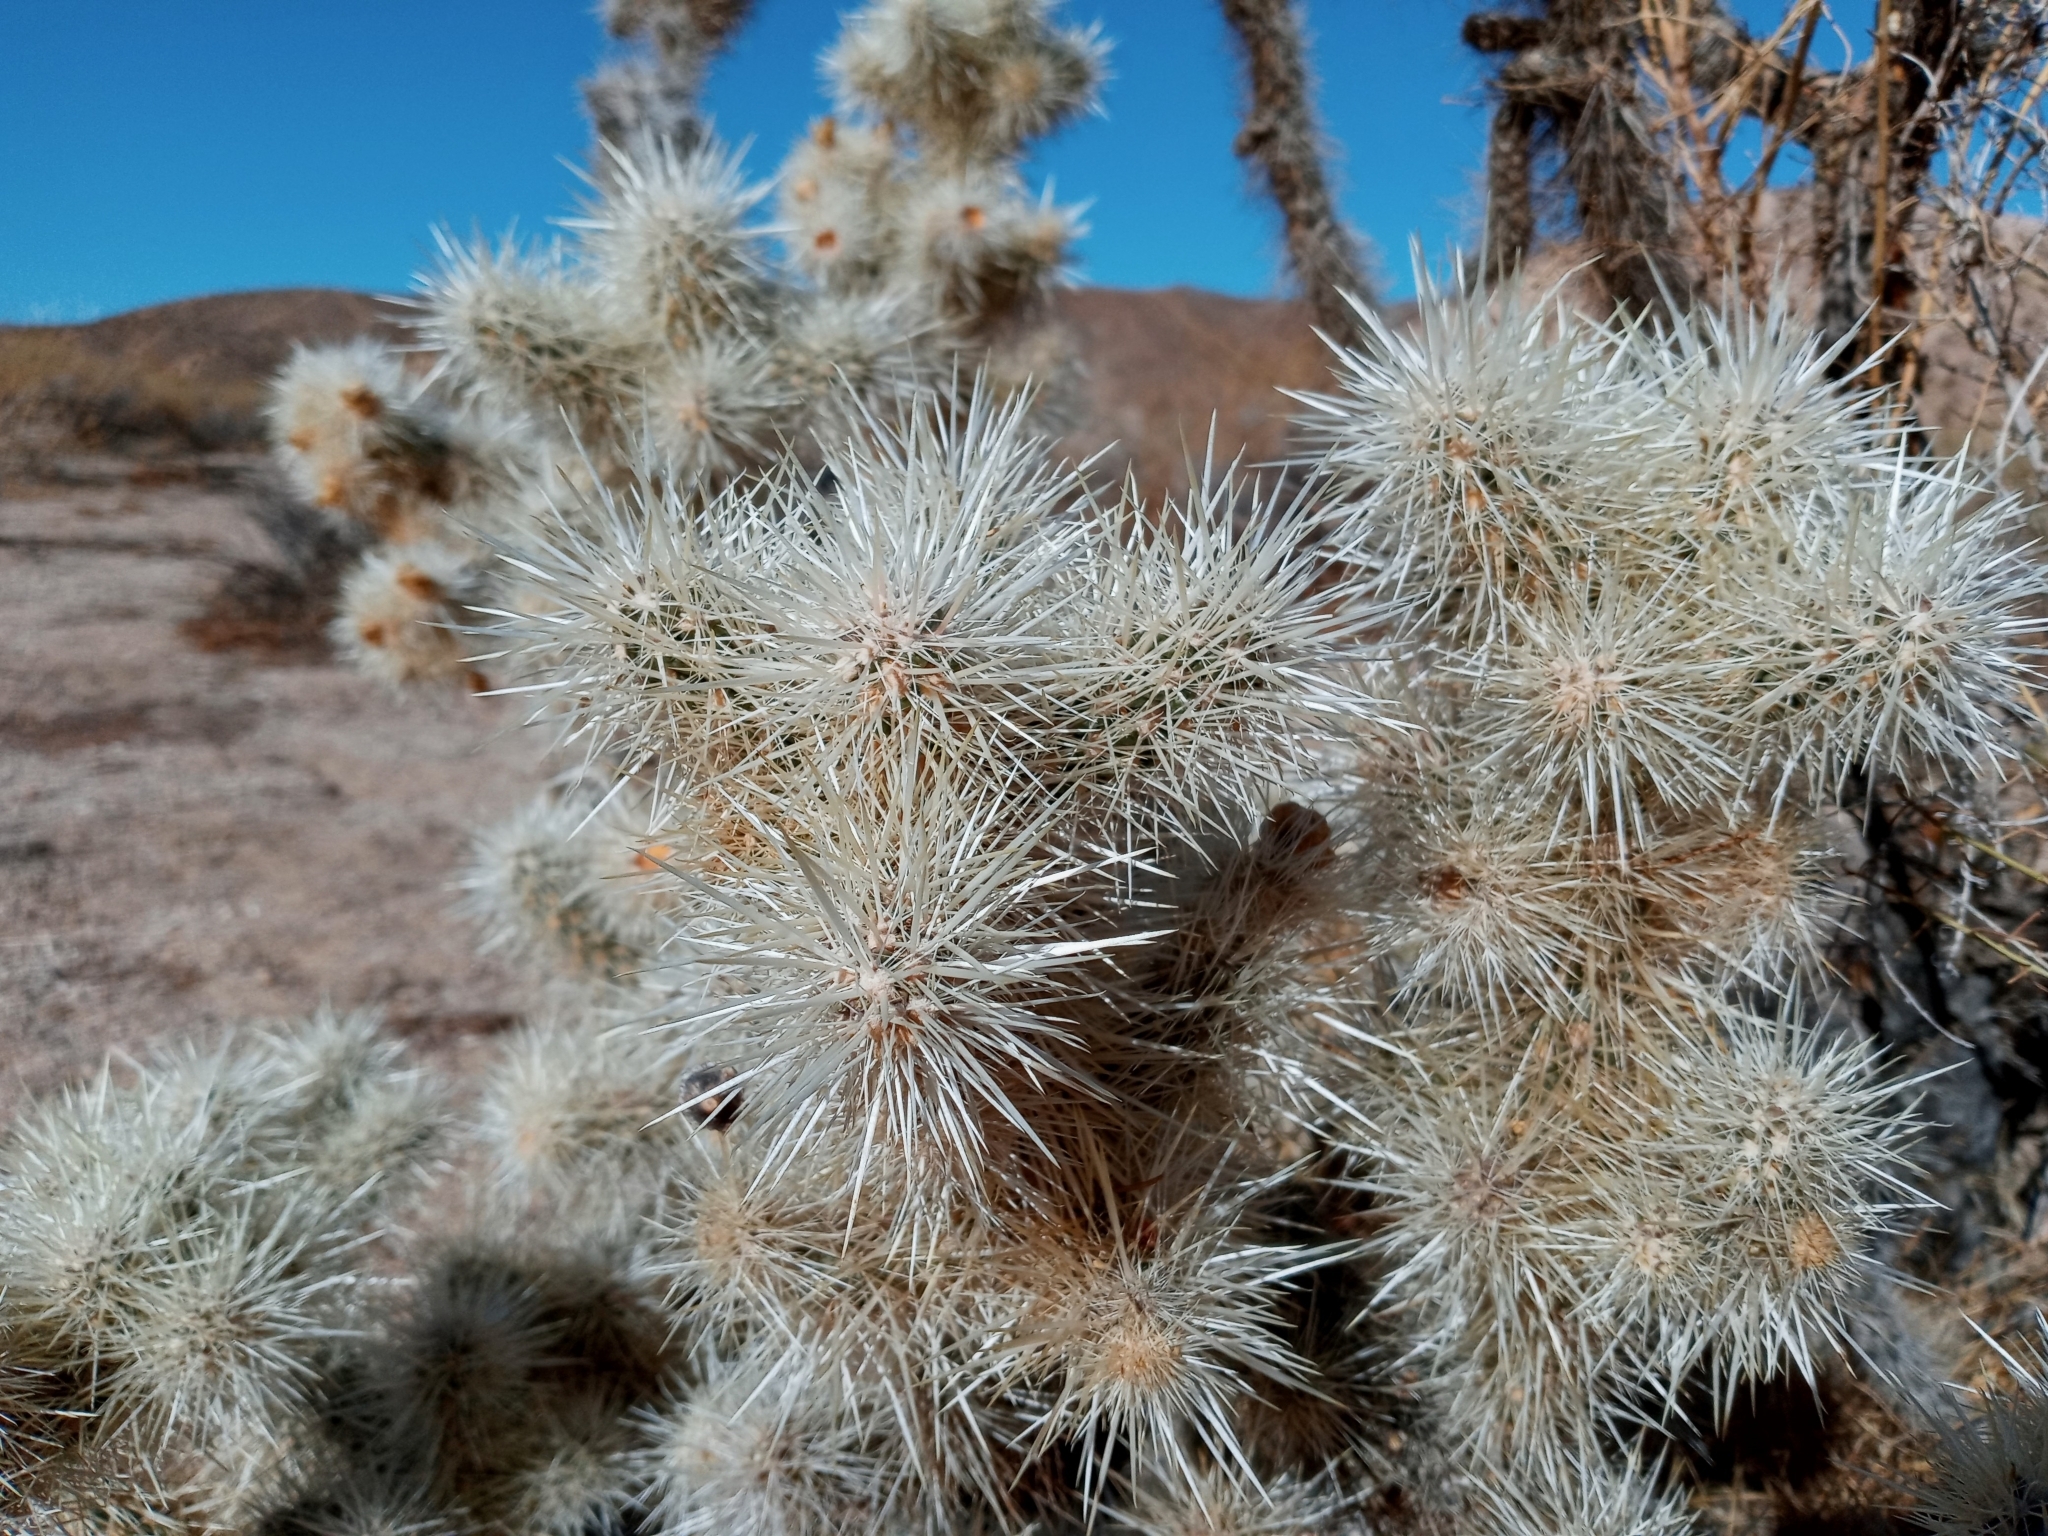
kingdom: Plantae
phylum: Tracheophyta
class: Magnoliopsida
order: Caryophyllales
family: Cactaceae
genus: Cylindropuntia
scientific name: Cylindropuntia echinocarpa
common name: Ground cholla
